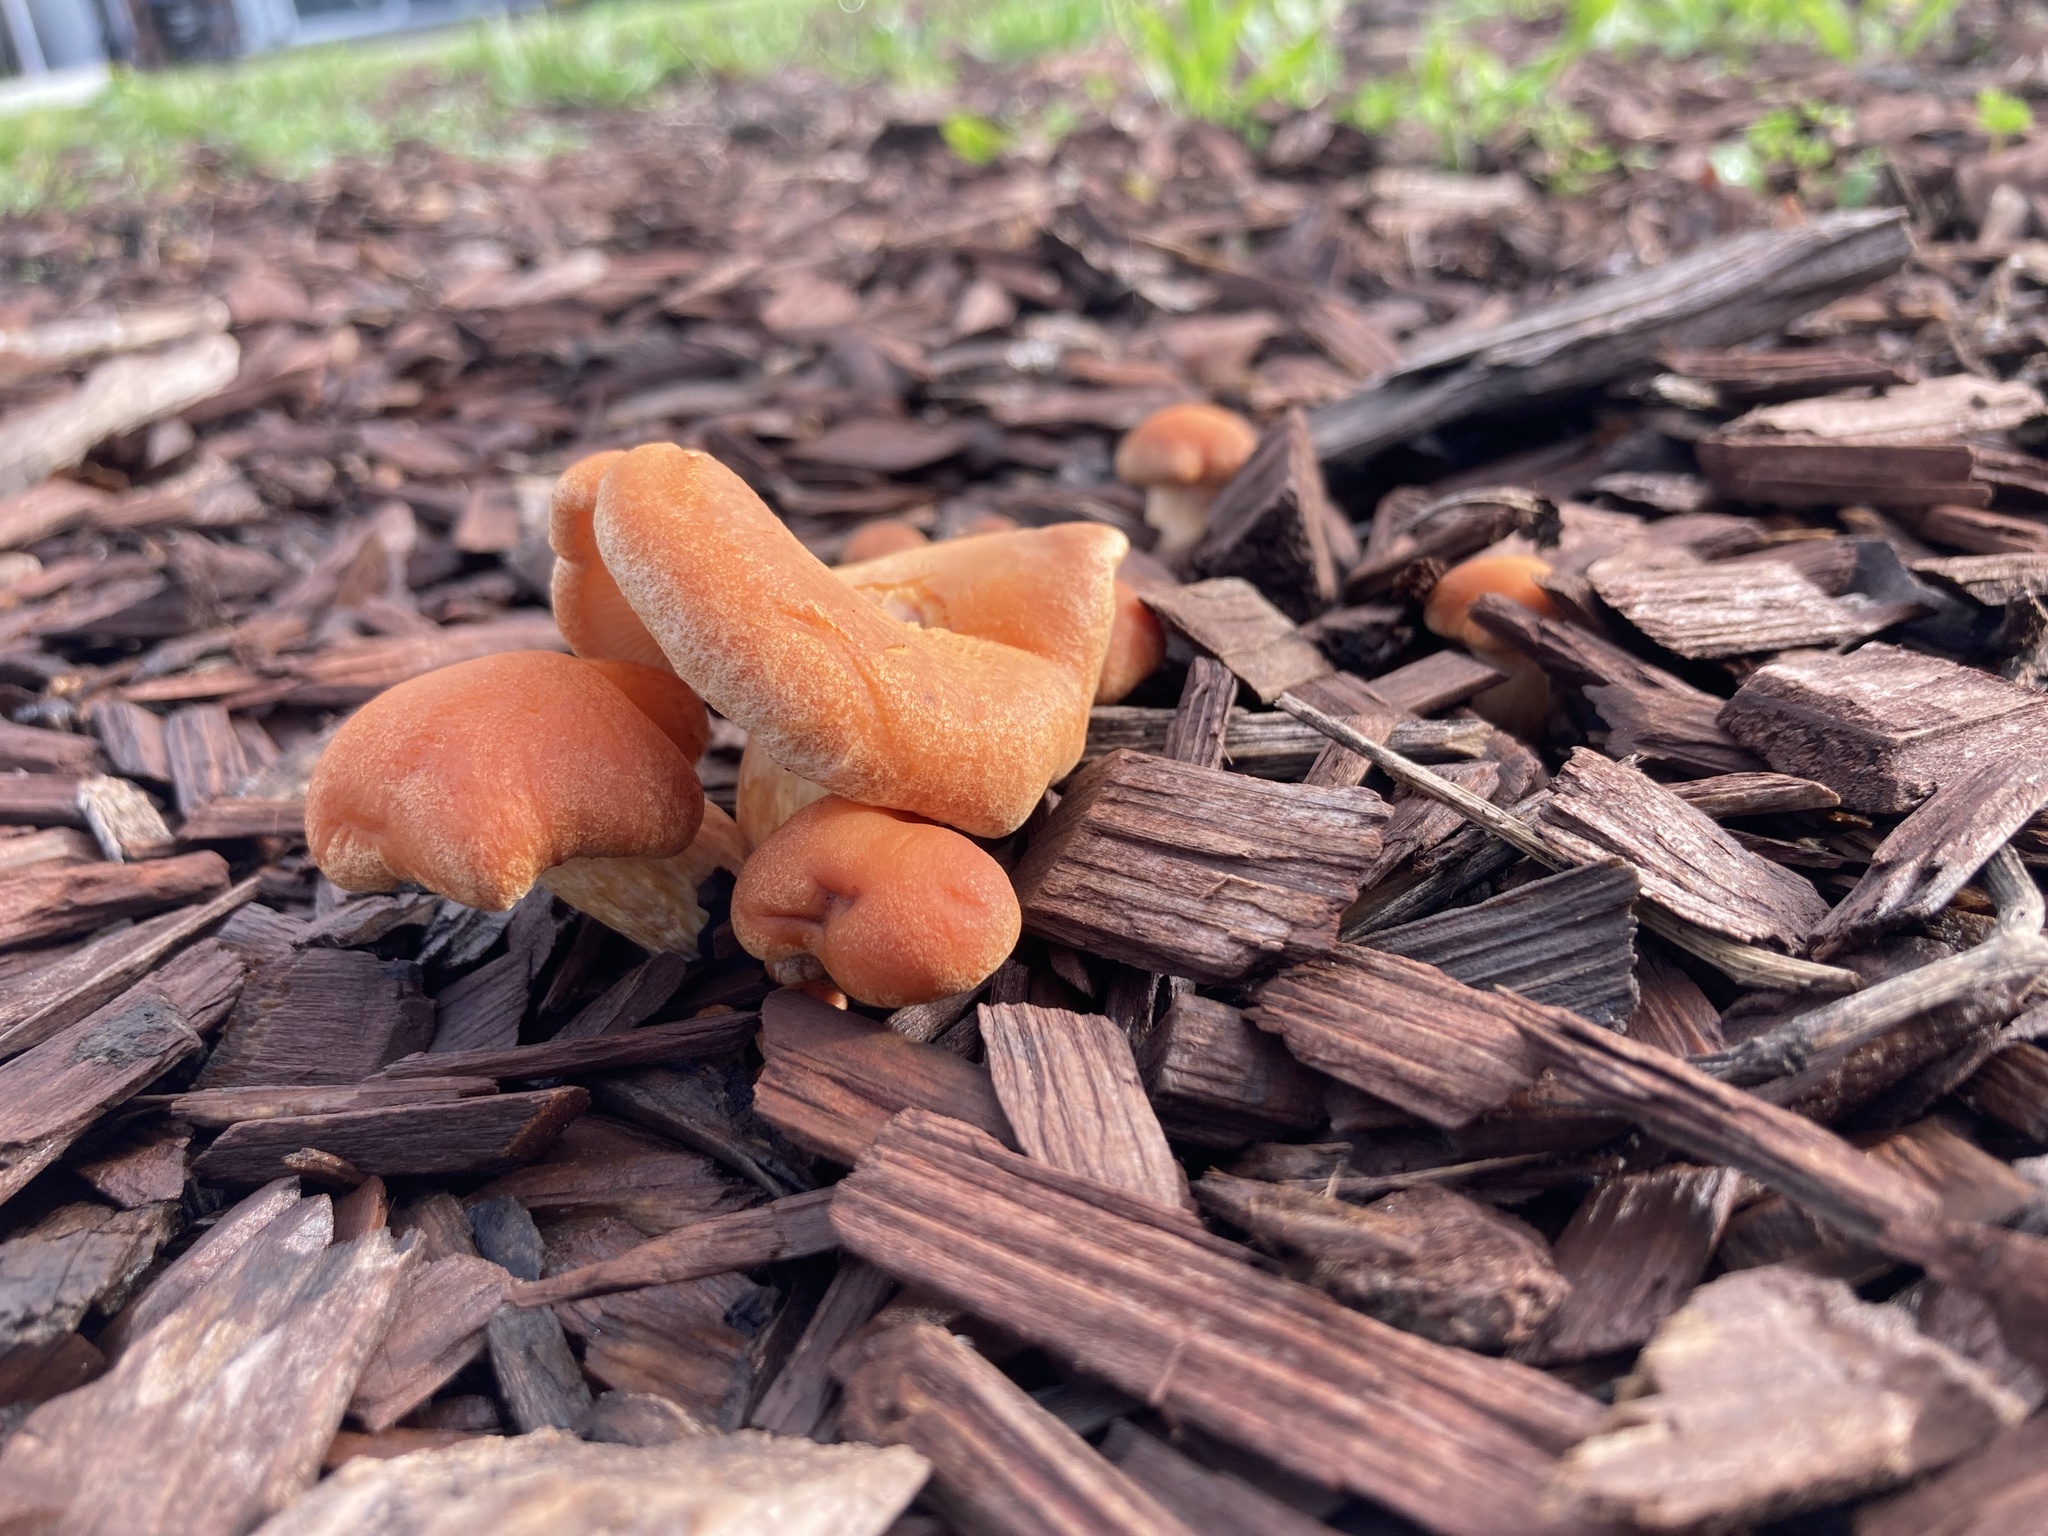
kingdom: Fungi
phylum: Basidiomycota
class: Agaricomycetes
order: Agaricales
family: Hymenogastraceae
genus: Gymnopilus
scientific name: Gymnopilus aurantiophyllus
